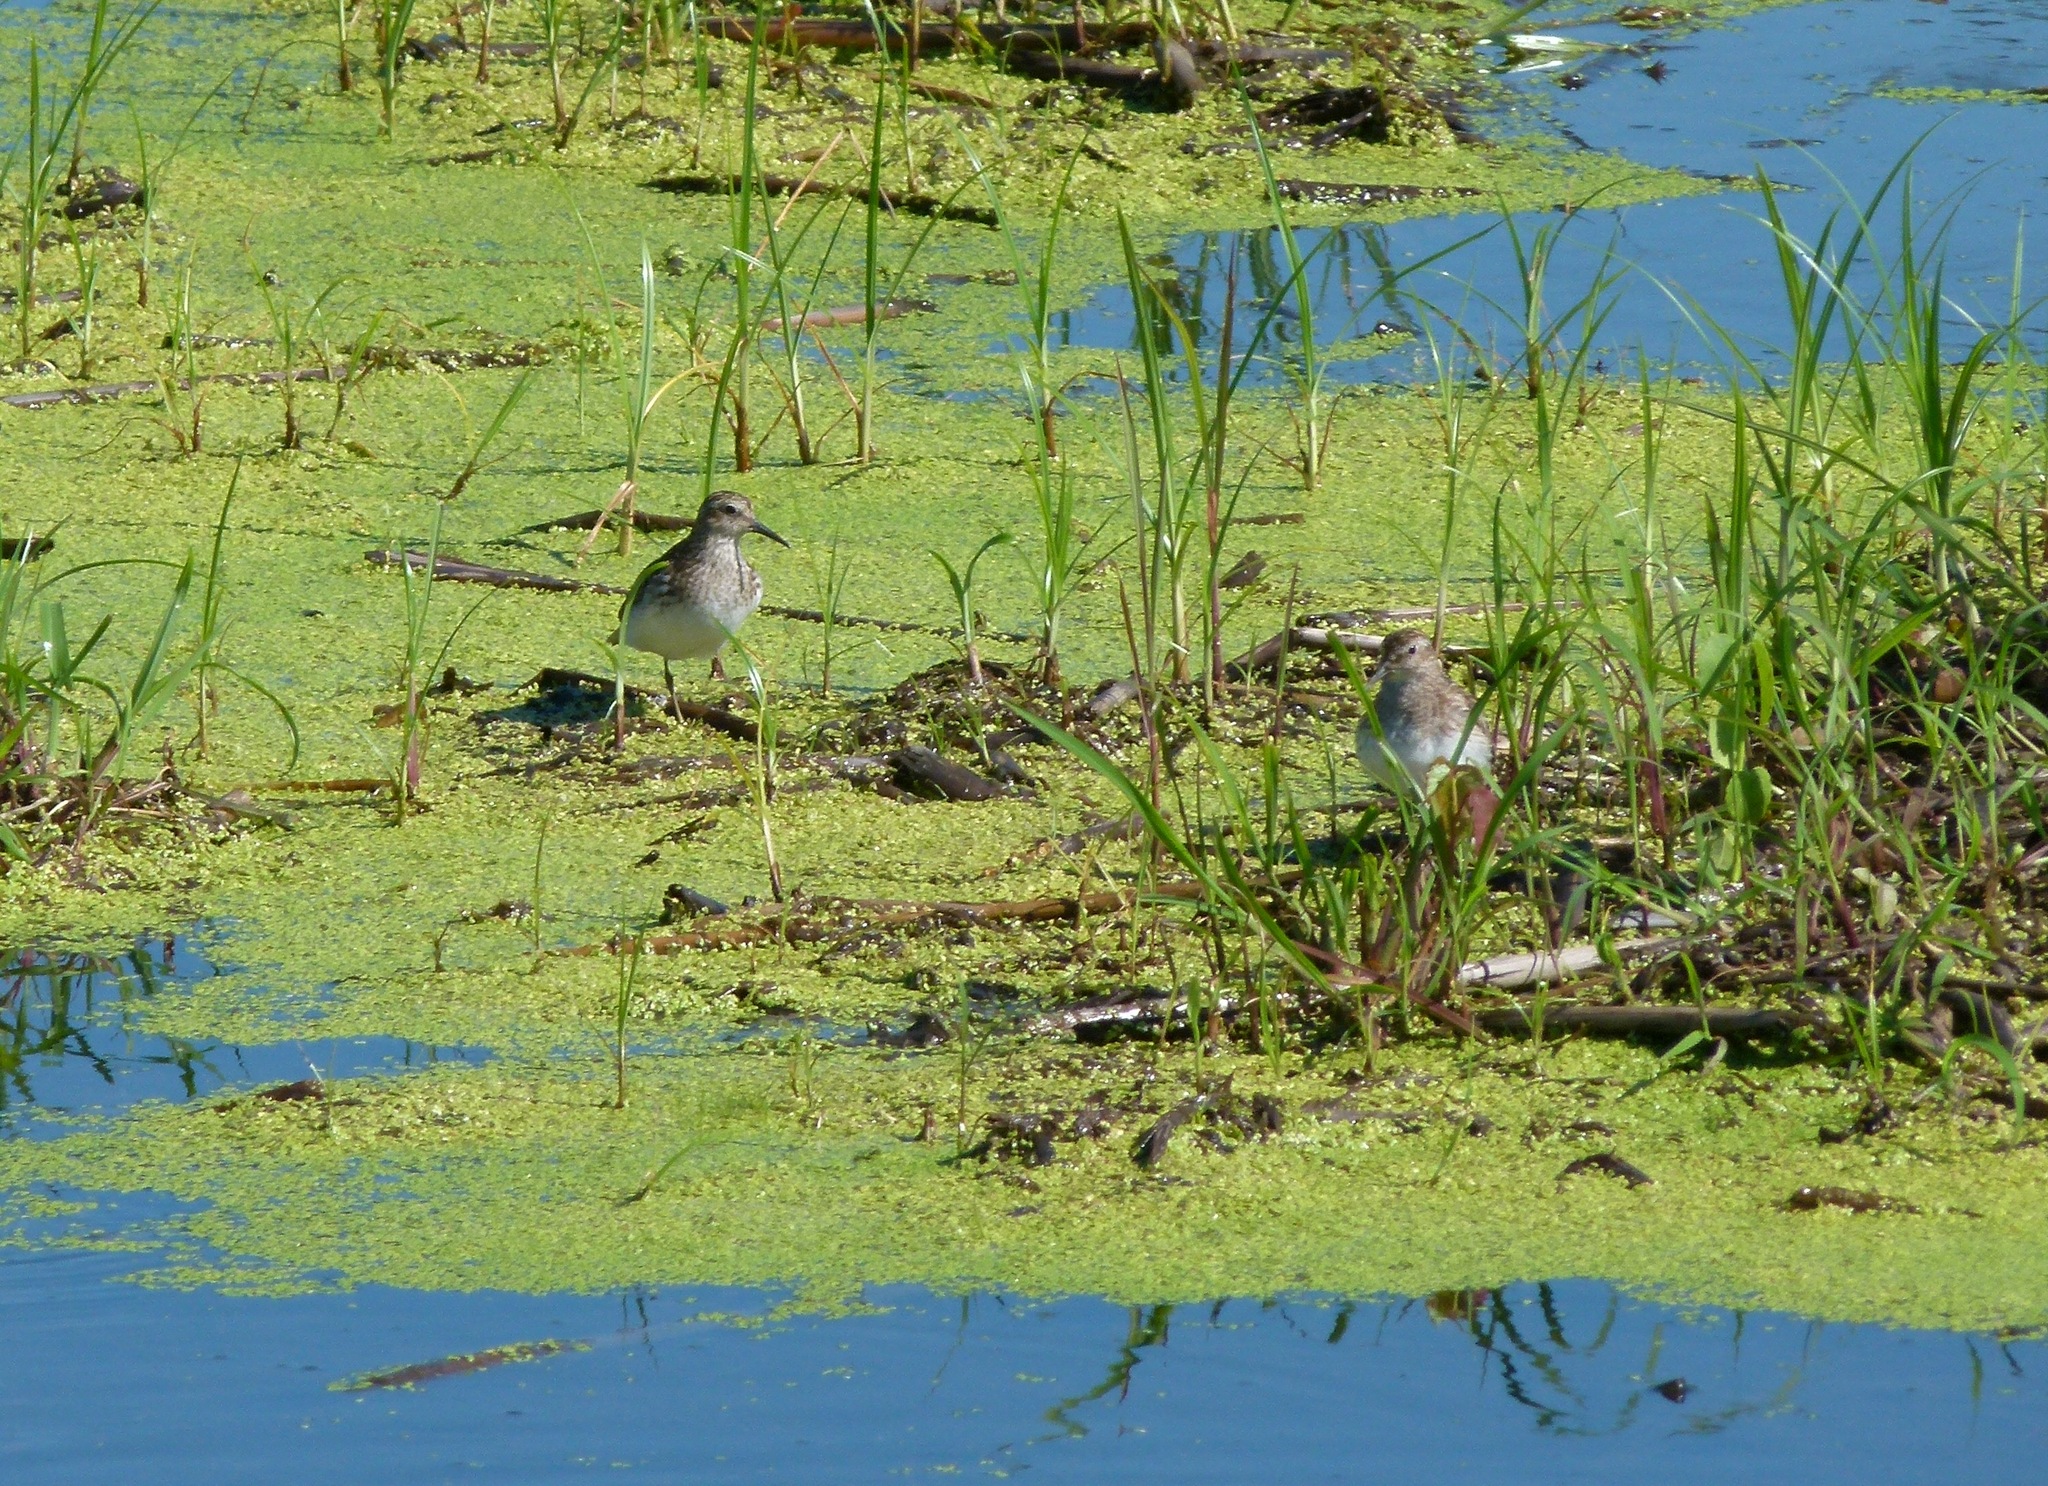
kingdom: Animalia
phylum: Chordata
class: Aves
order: Charadriiformes
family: Scolopacidae
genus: Calidris
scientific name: Calidris minutilla
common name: Least sandpiper
